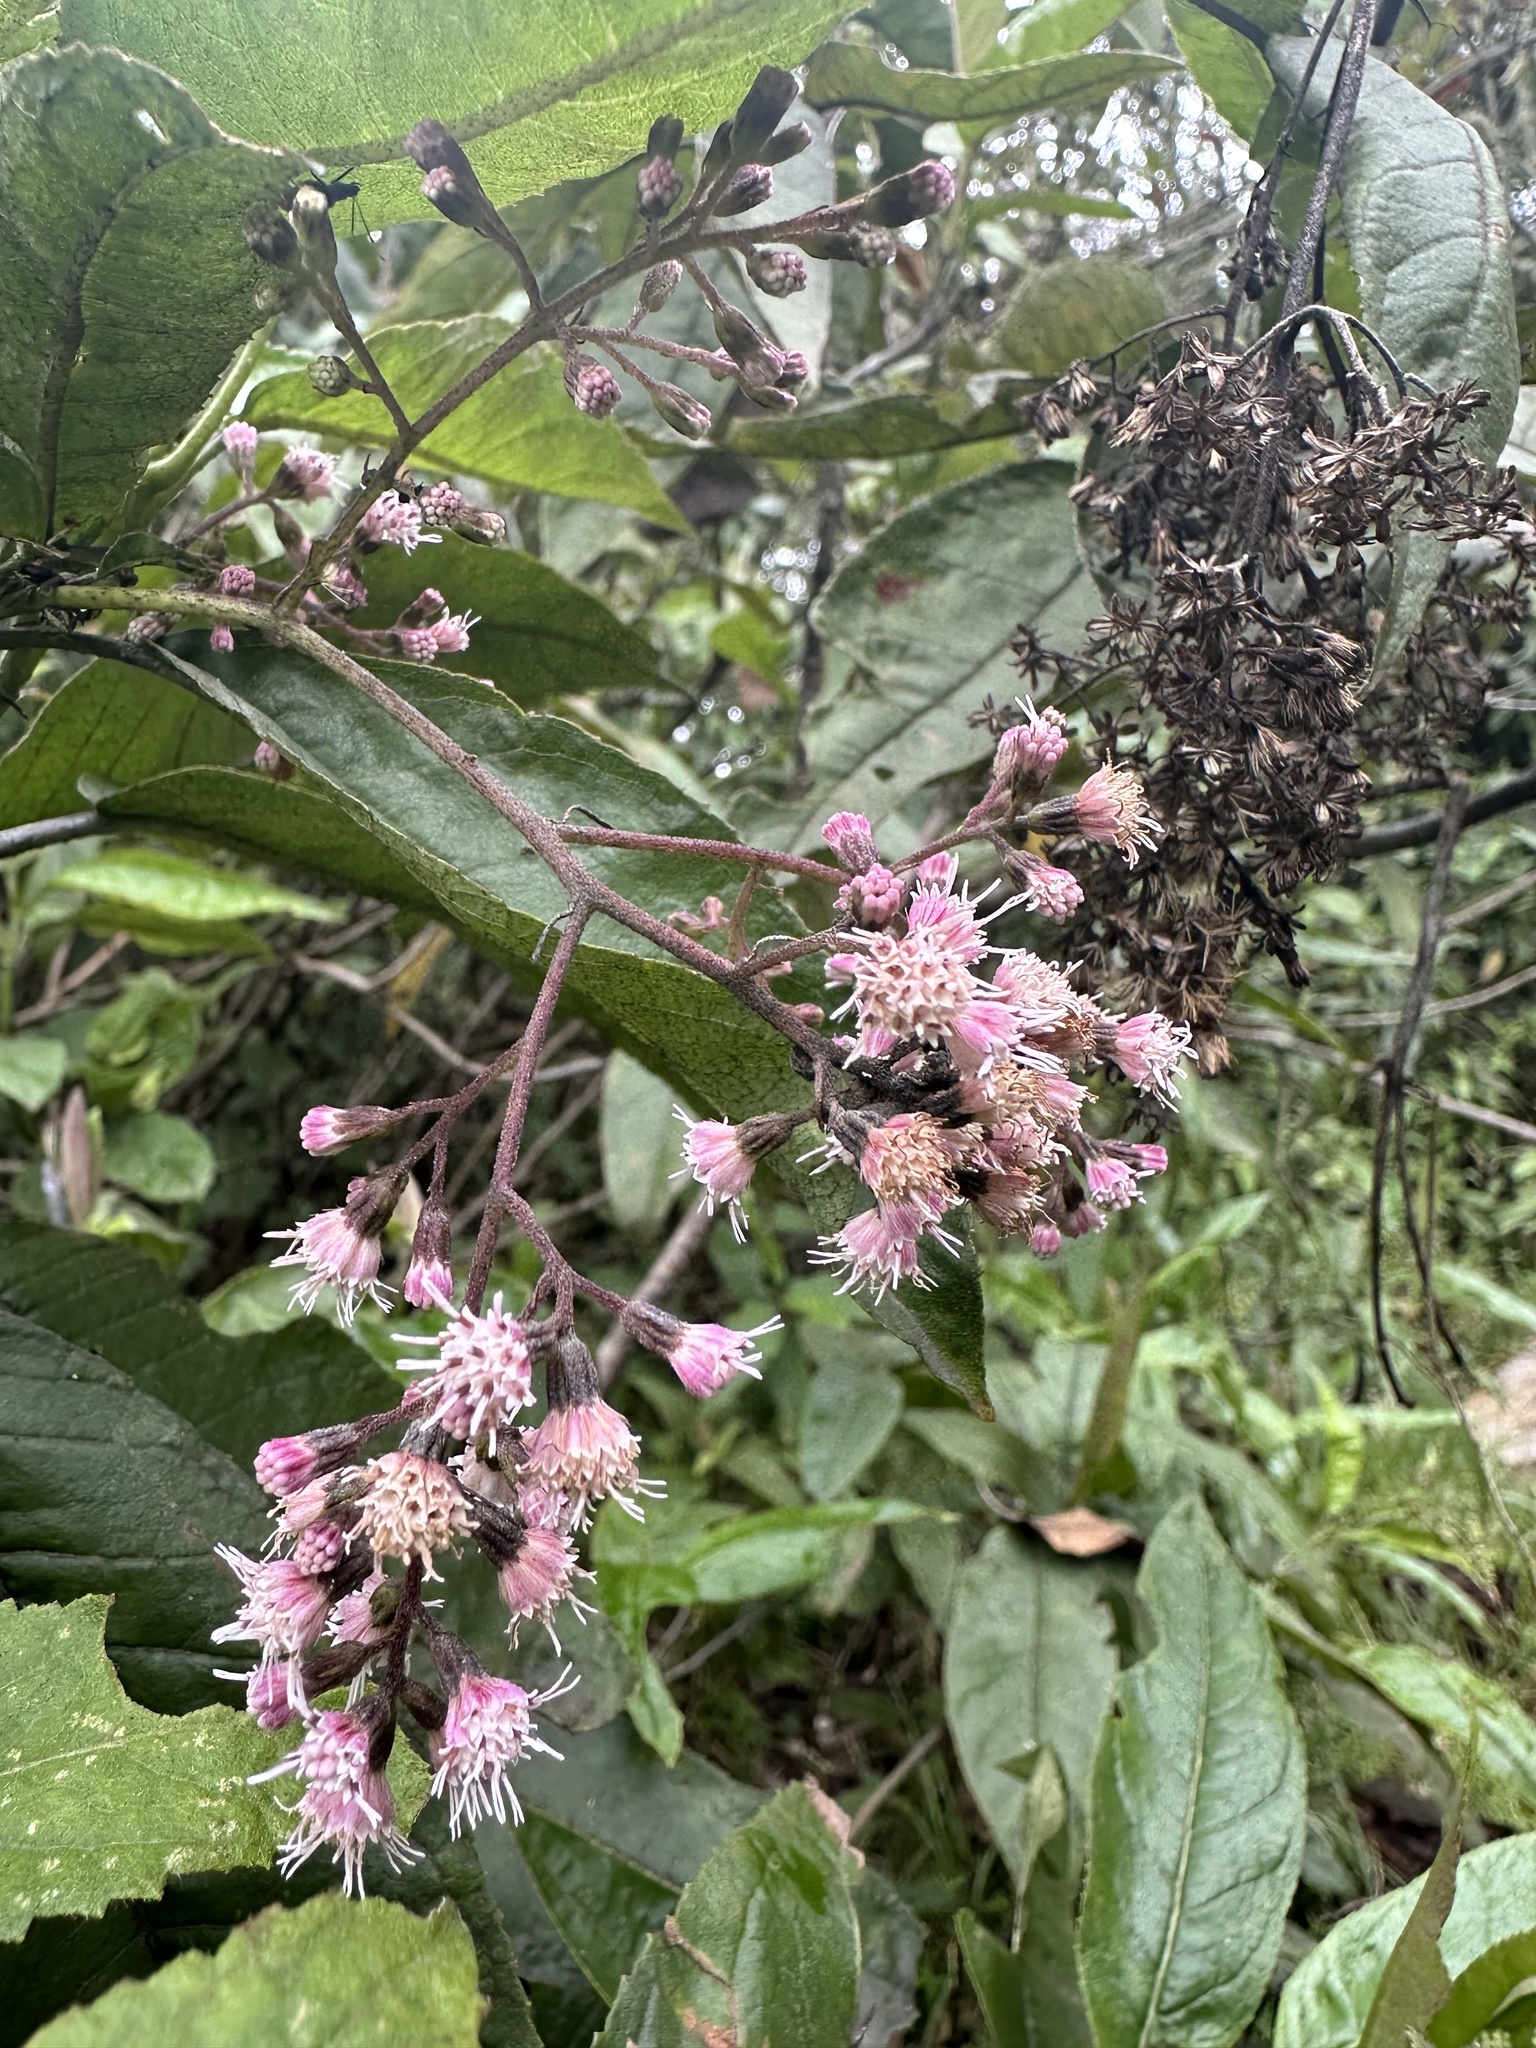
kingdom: Plantae
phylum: Tracheophyta
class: Magnoliopsida
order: Asterales
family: Asteraceae
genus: Ageratina
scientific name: Ageratina ampla
